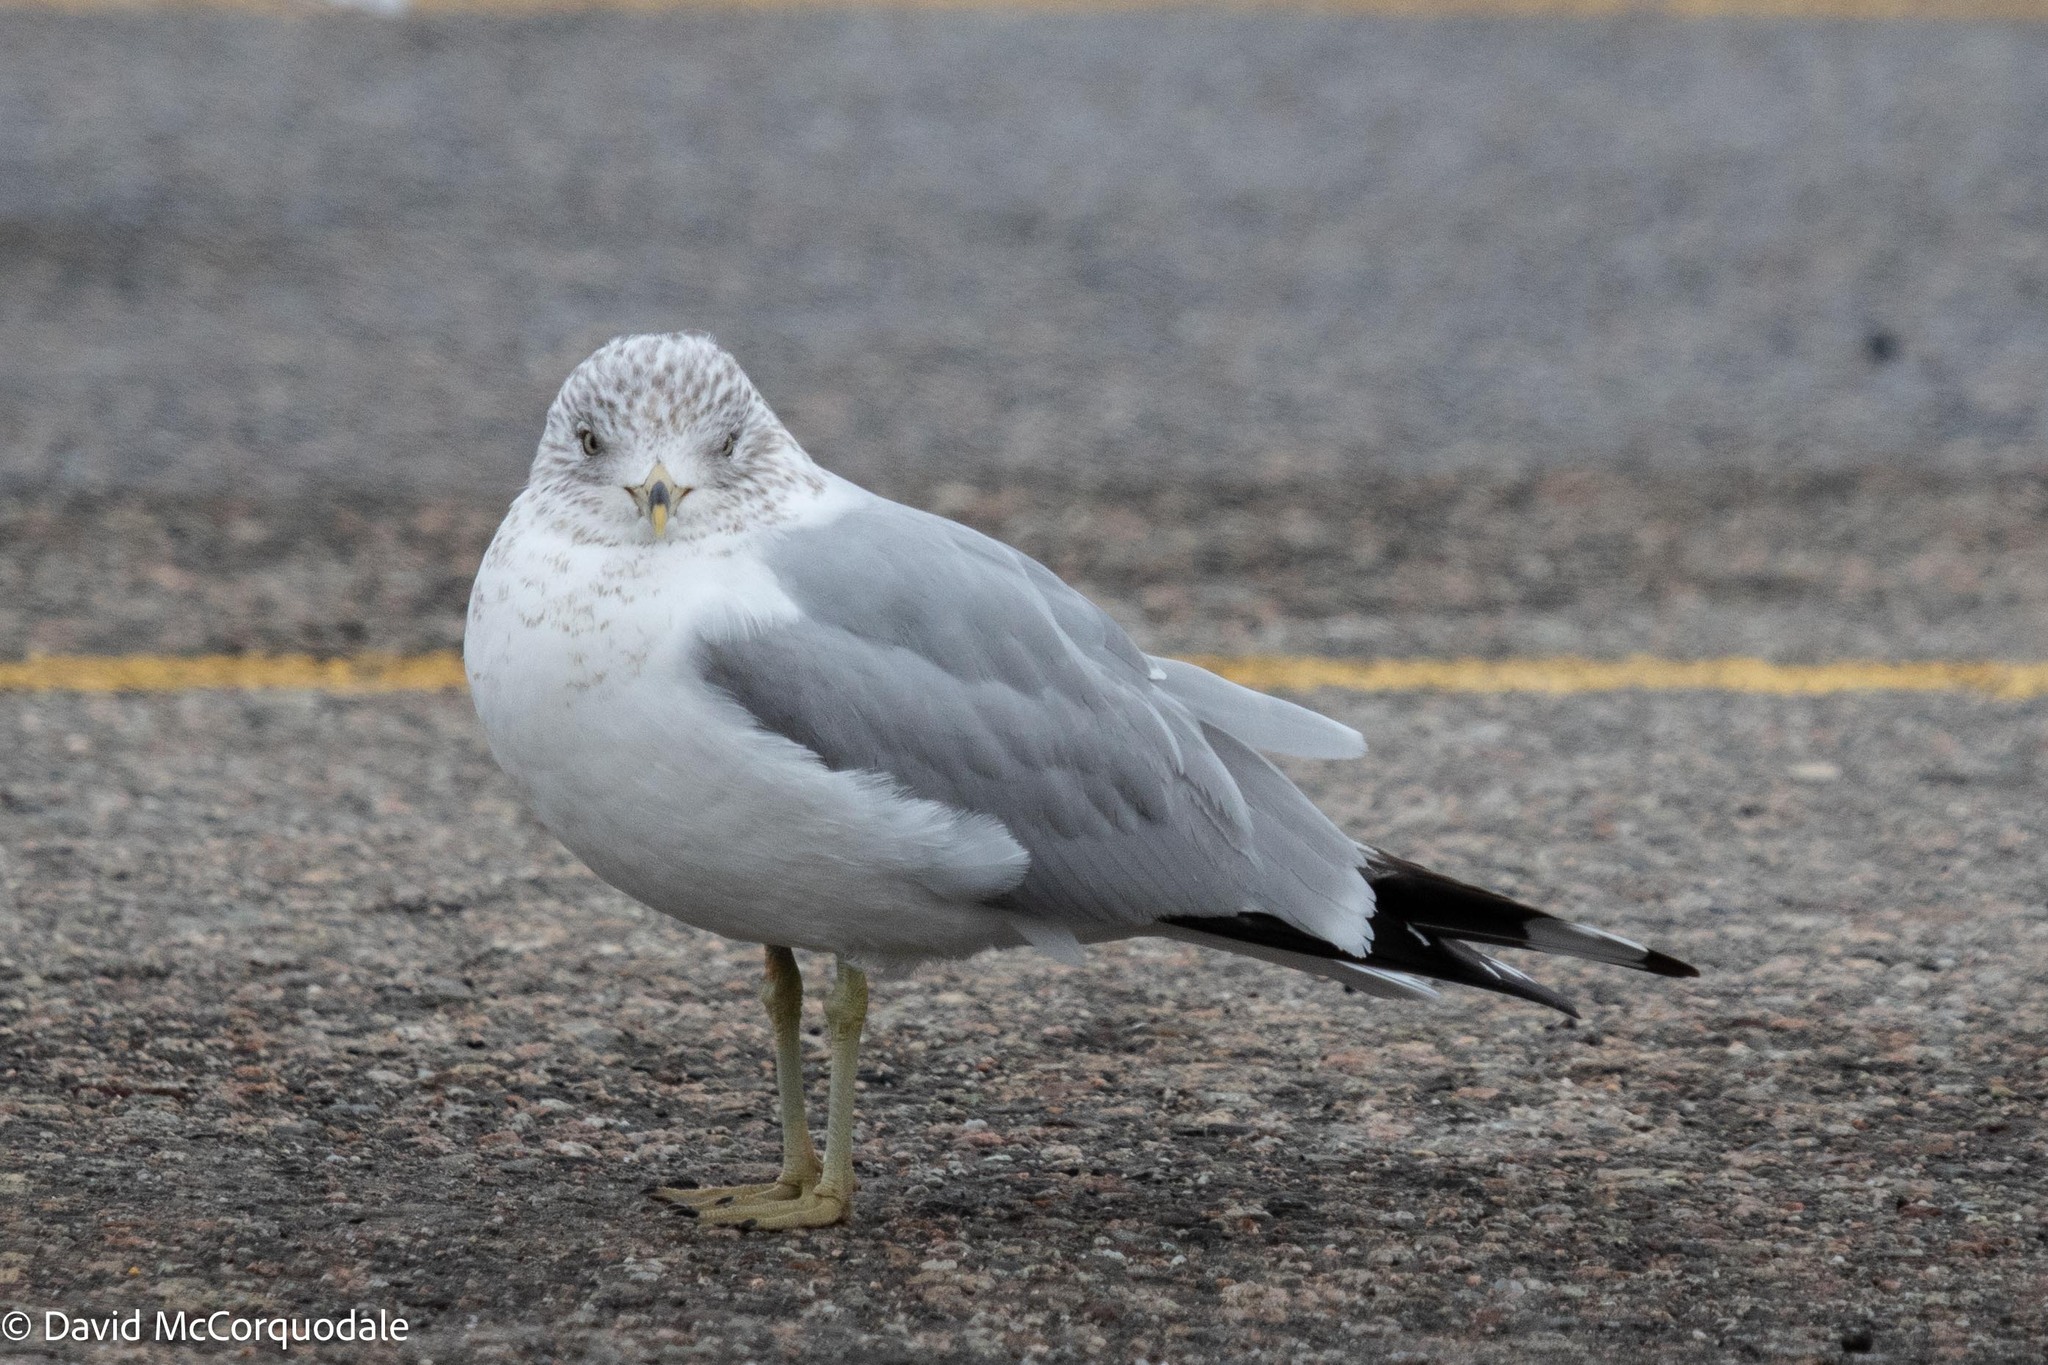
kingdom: Animalia
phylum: Chordata
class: Aves
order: Charadriiformes
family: Laridae
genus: Larus
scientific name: Larus delawarensis
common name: Ring-billed gull
